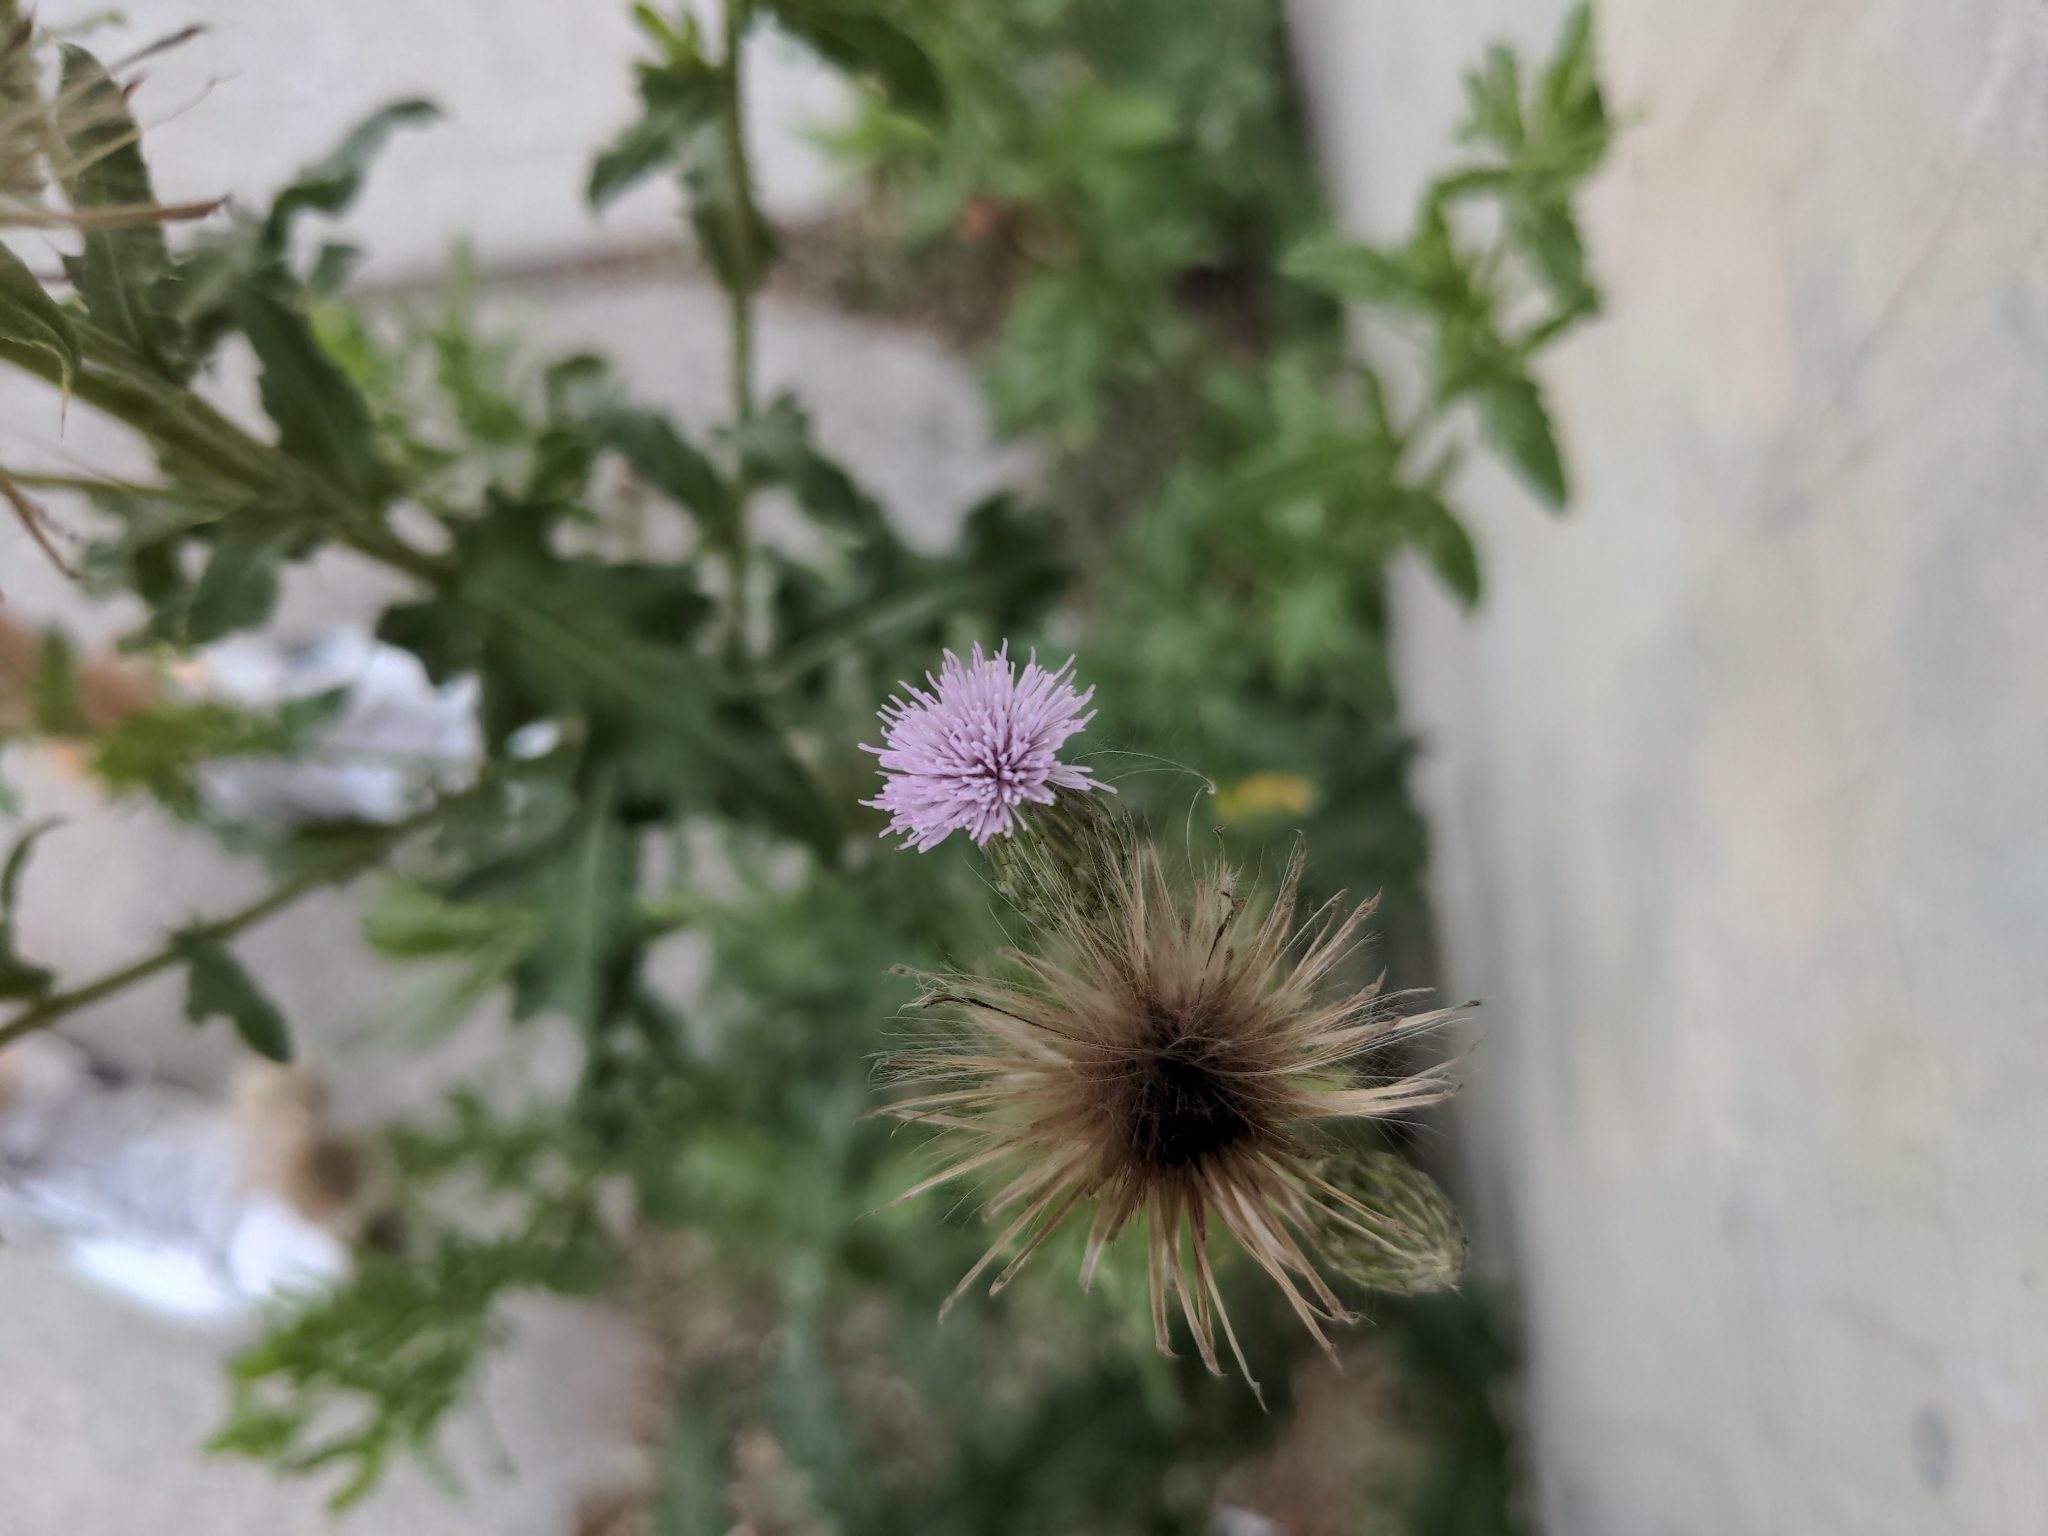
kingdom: Plantae
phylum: Tracheophyta
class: Magnoliopsida
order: Asterales
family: Asteraceae
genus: Cirsium
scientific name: Cirsium arvense
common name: Creeping thistle
